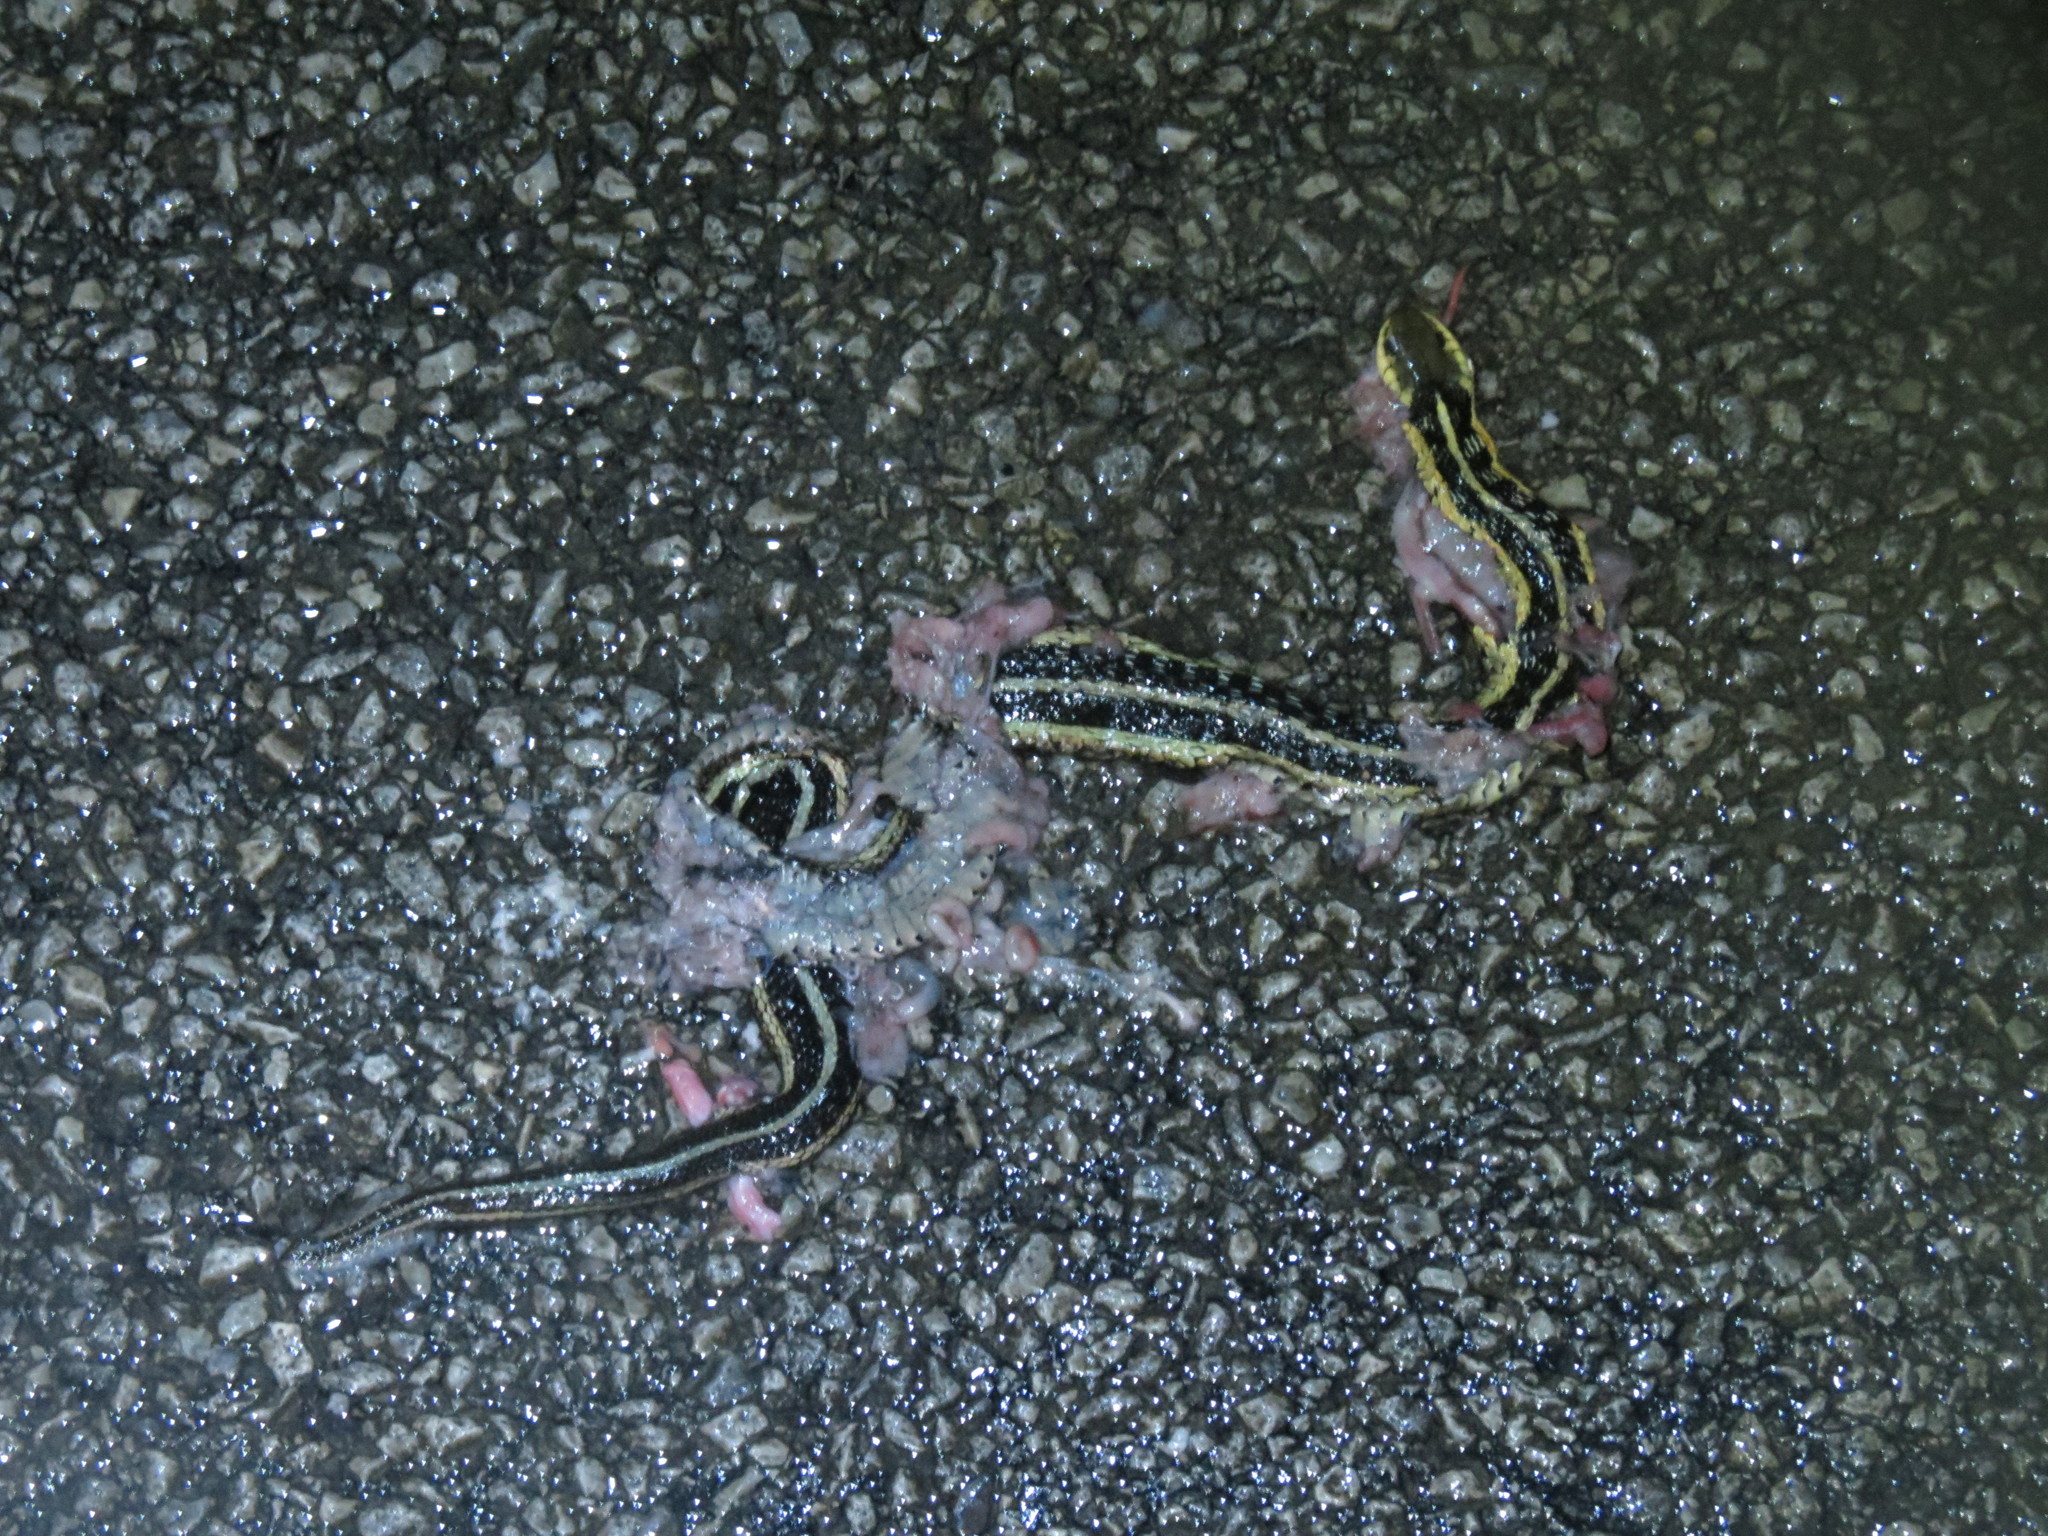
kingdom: Animalia
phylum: Chordata
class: Squamata
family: Colubridae
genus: Thamnophis
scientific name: Thamnophis sirtalis
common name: Common garter snake
